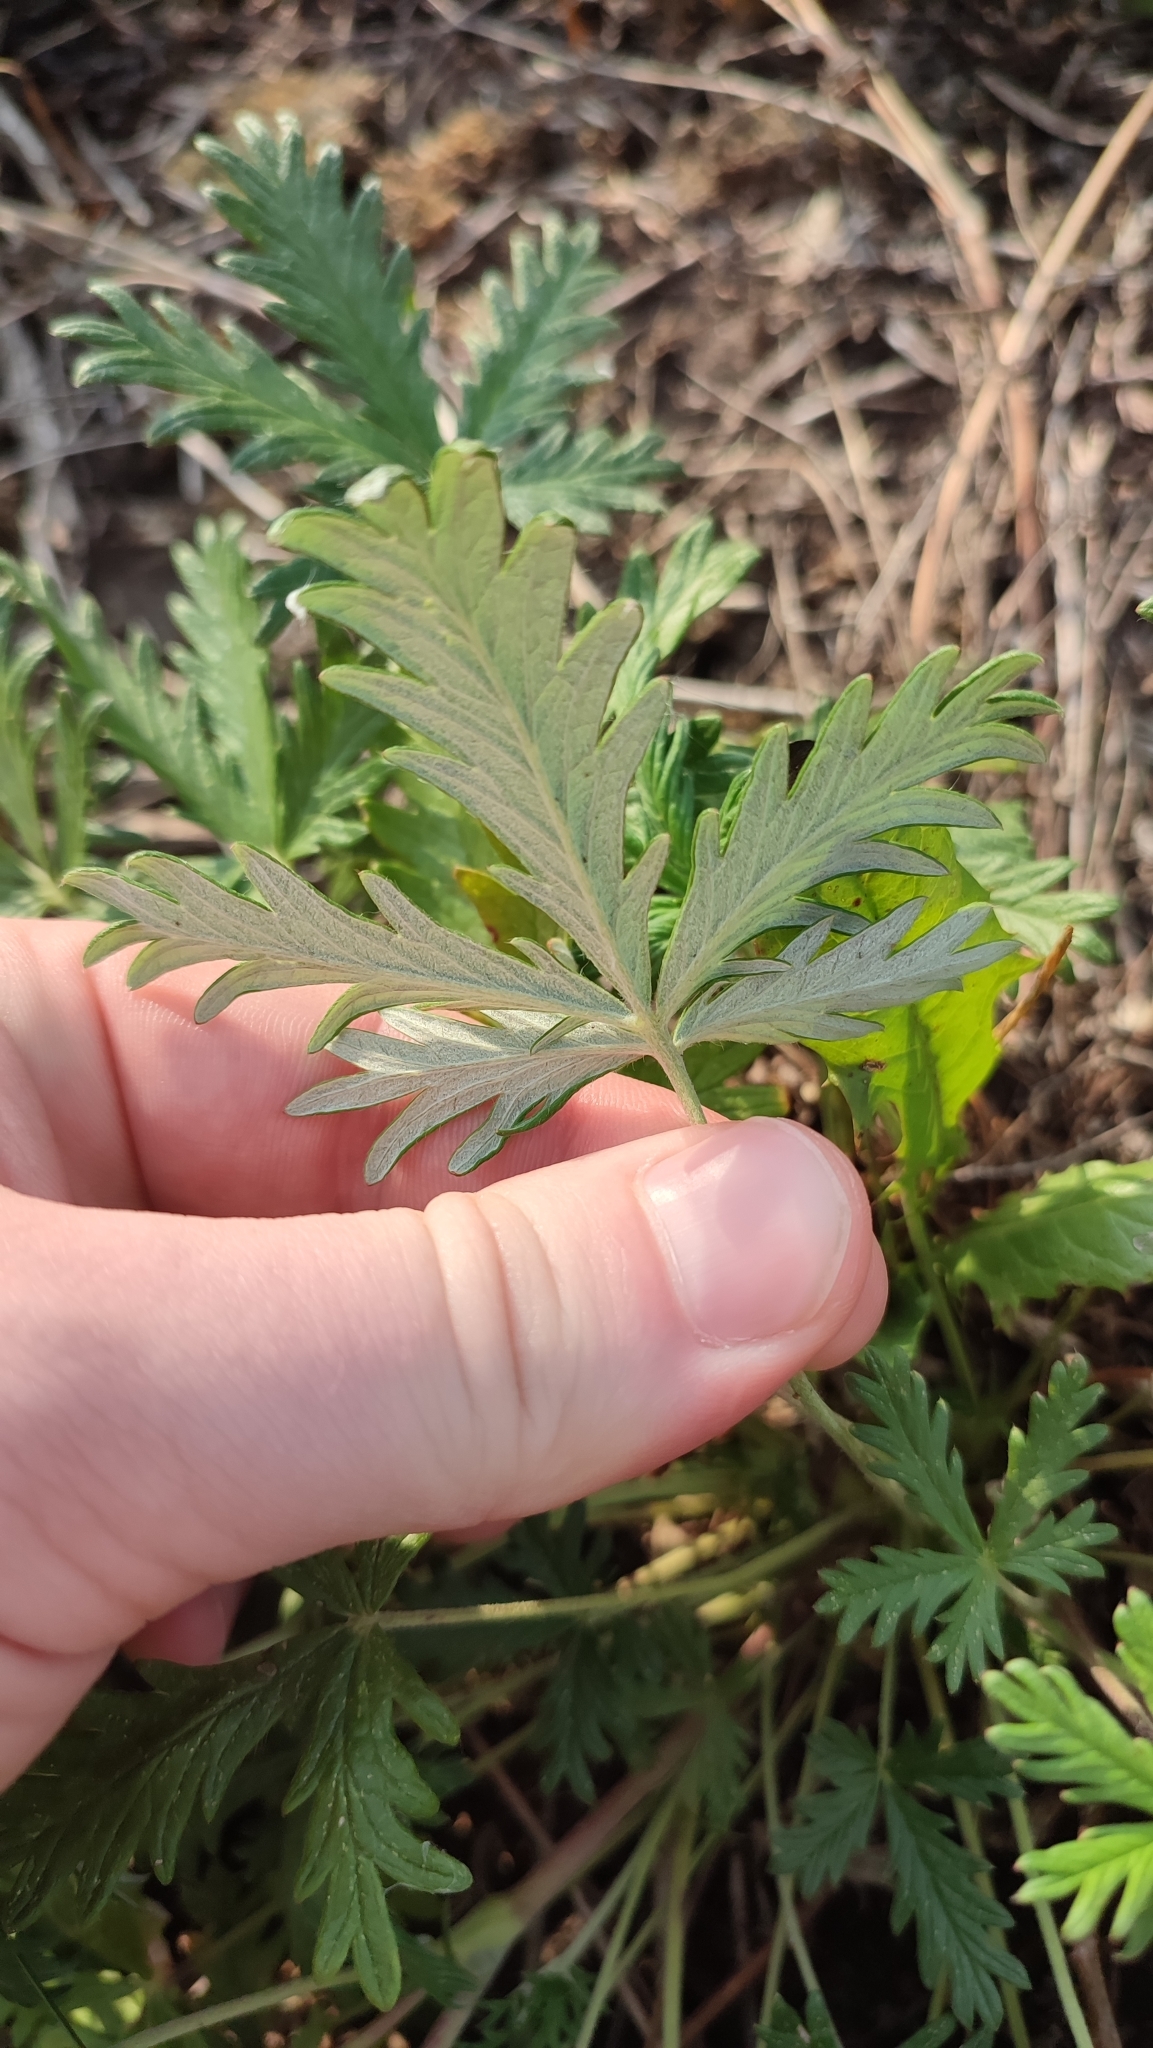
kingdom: Plantae
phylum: Tracheophyta
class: Magnoliopsida
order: Rosales
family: Rosaceae
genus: Potentilla
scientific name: Potentilla argentea
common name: Hoary cinquefoil
